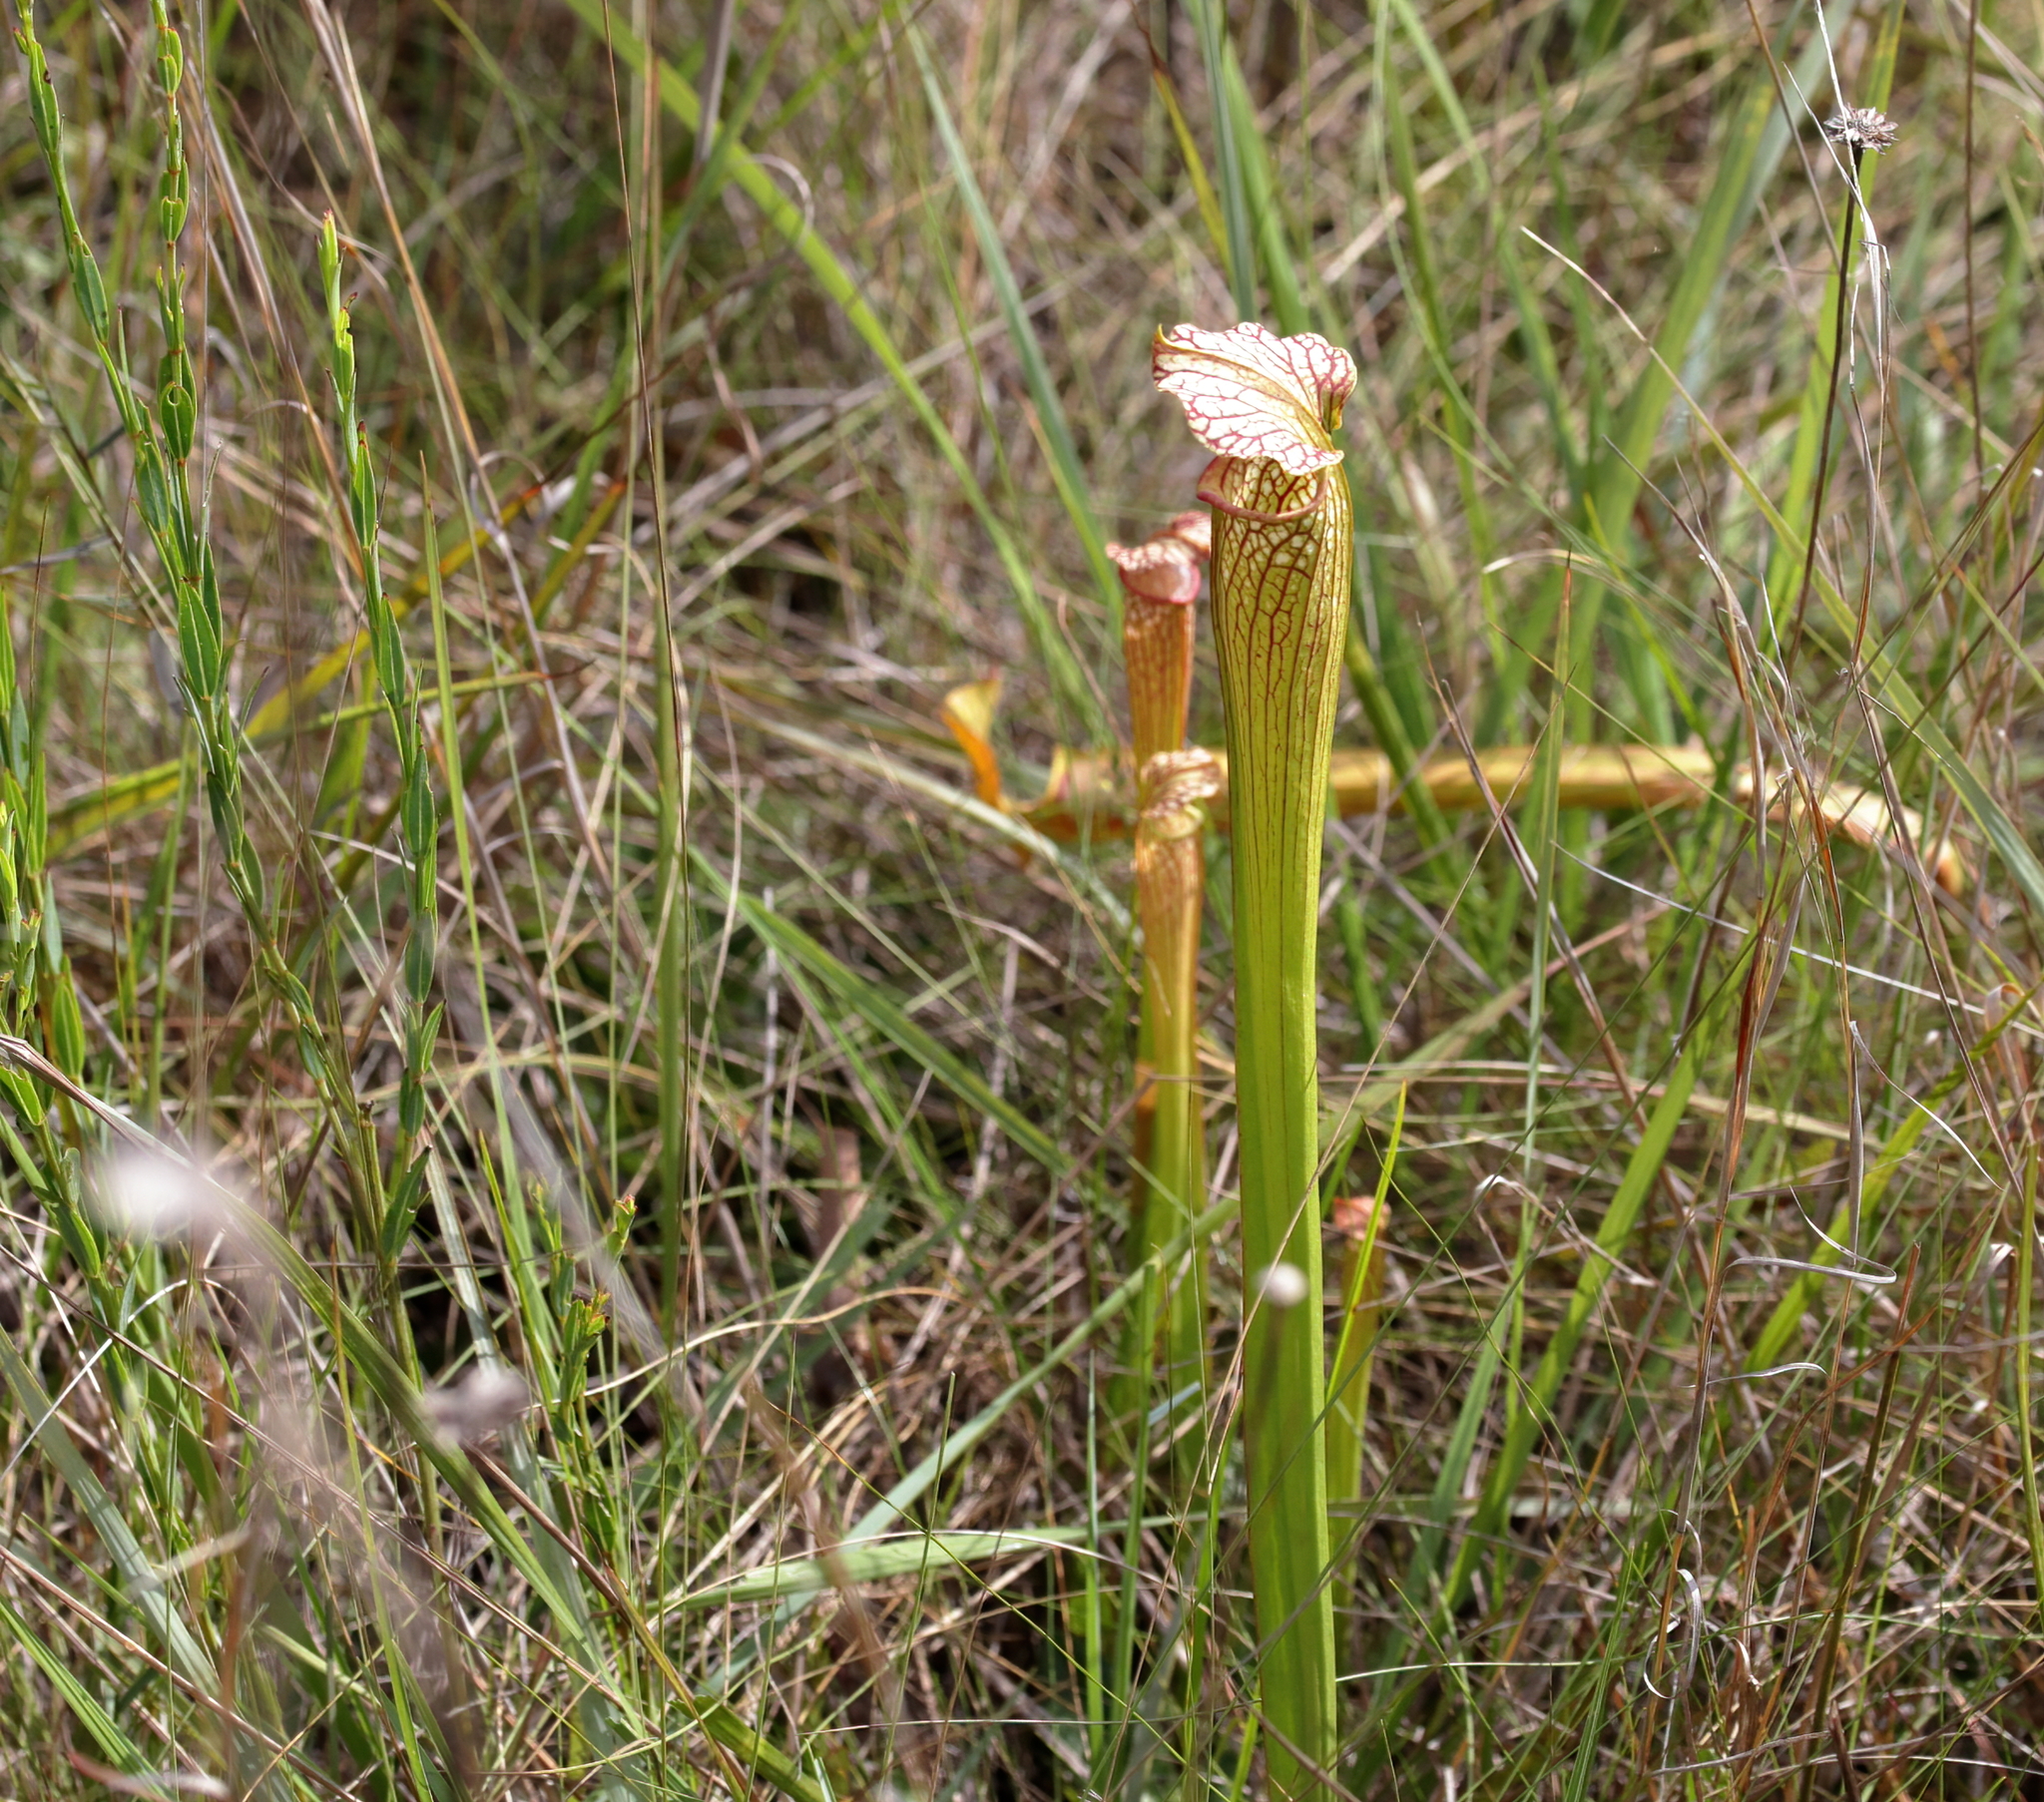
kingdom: Plantae
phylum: Tracheophyta
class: Magnoliopsida
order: Ericales
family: Sarraceniaceae
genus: Sarracenia
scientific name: Sarracenia areolata
